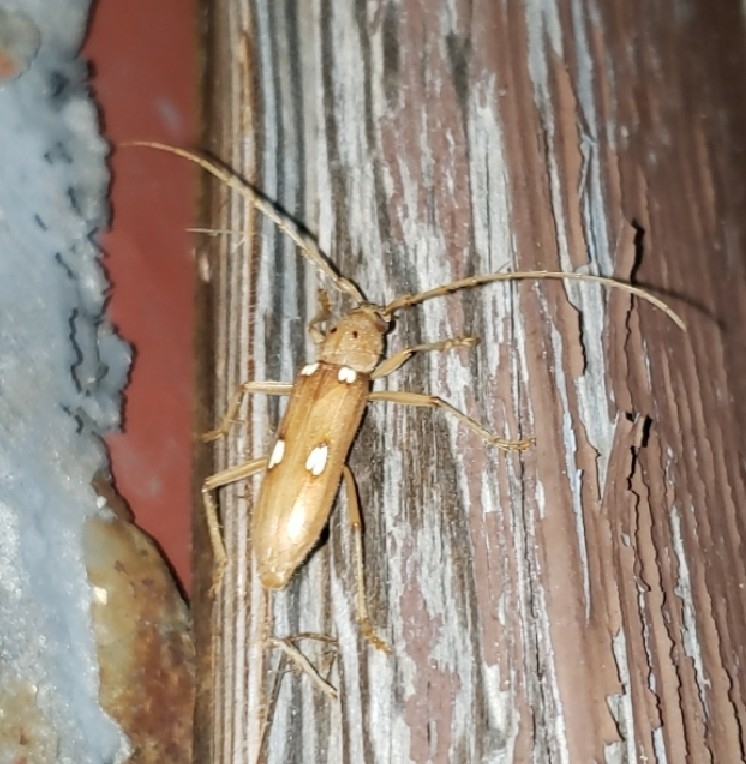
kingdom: Animalia
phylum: Arthropoda
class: Insecta
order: Coleoptera
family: Cerambycidae
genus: Eburia
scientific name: Eburia quadrigeminata
